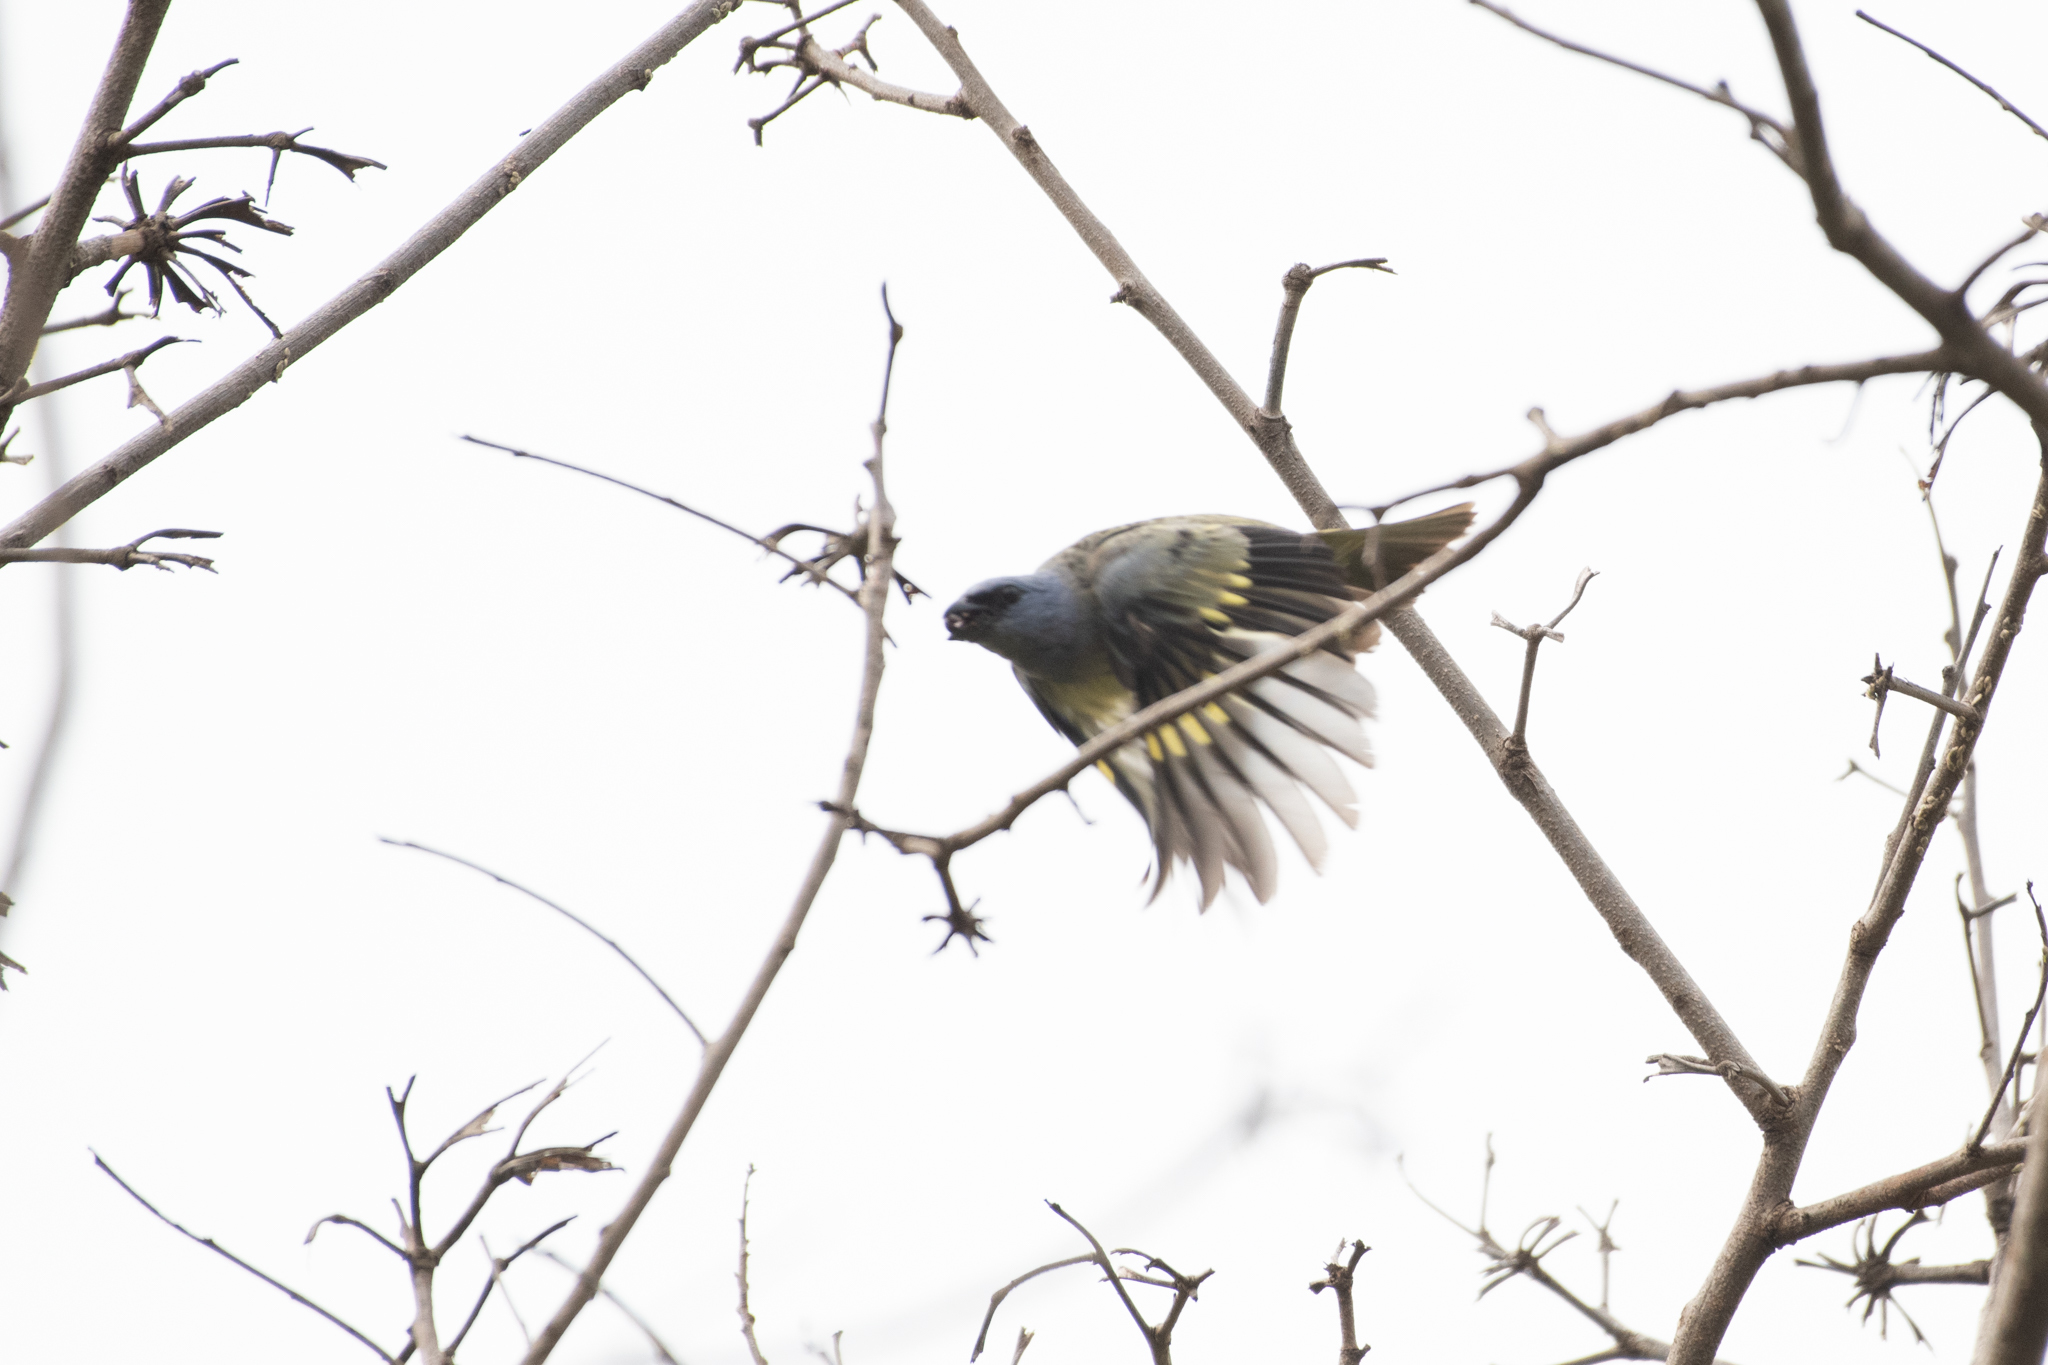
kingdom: Animalia
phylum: Chordata
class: Aves
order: Passeriformes
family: Thraupidae
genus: Thraupis
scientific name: Thraupis abbas
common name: Yellow-winged tanager
